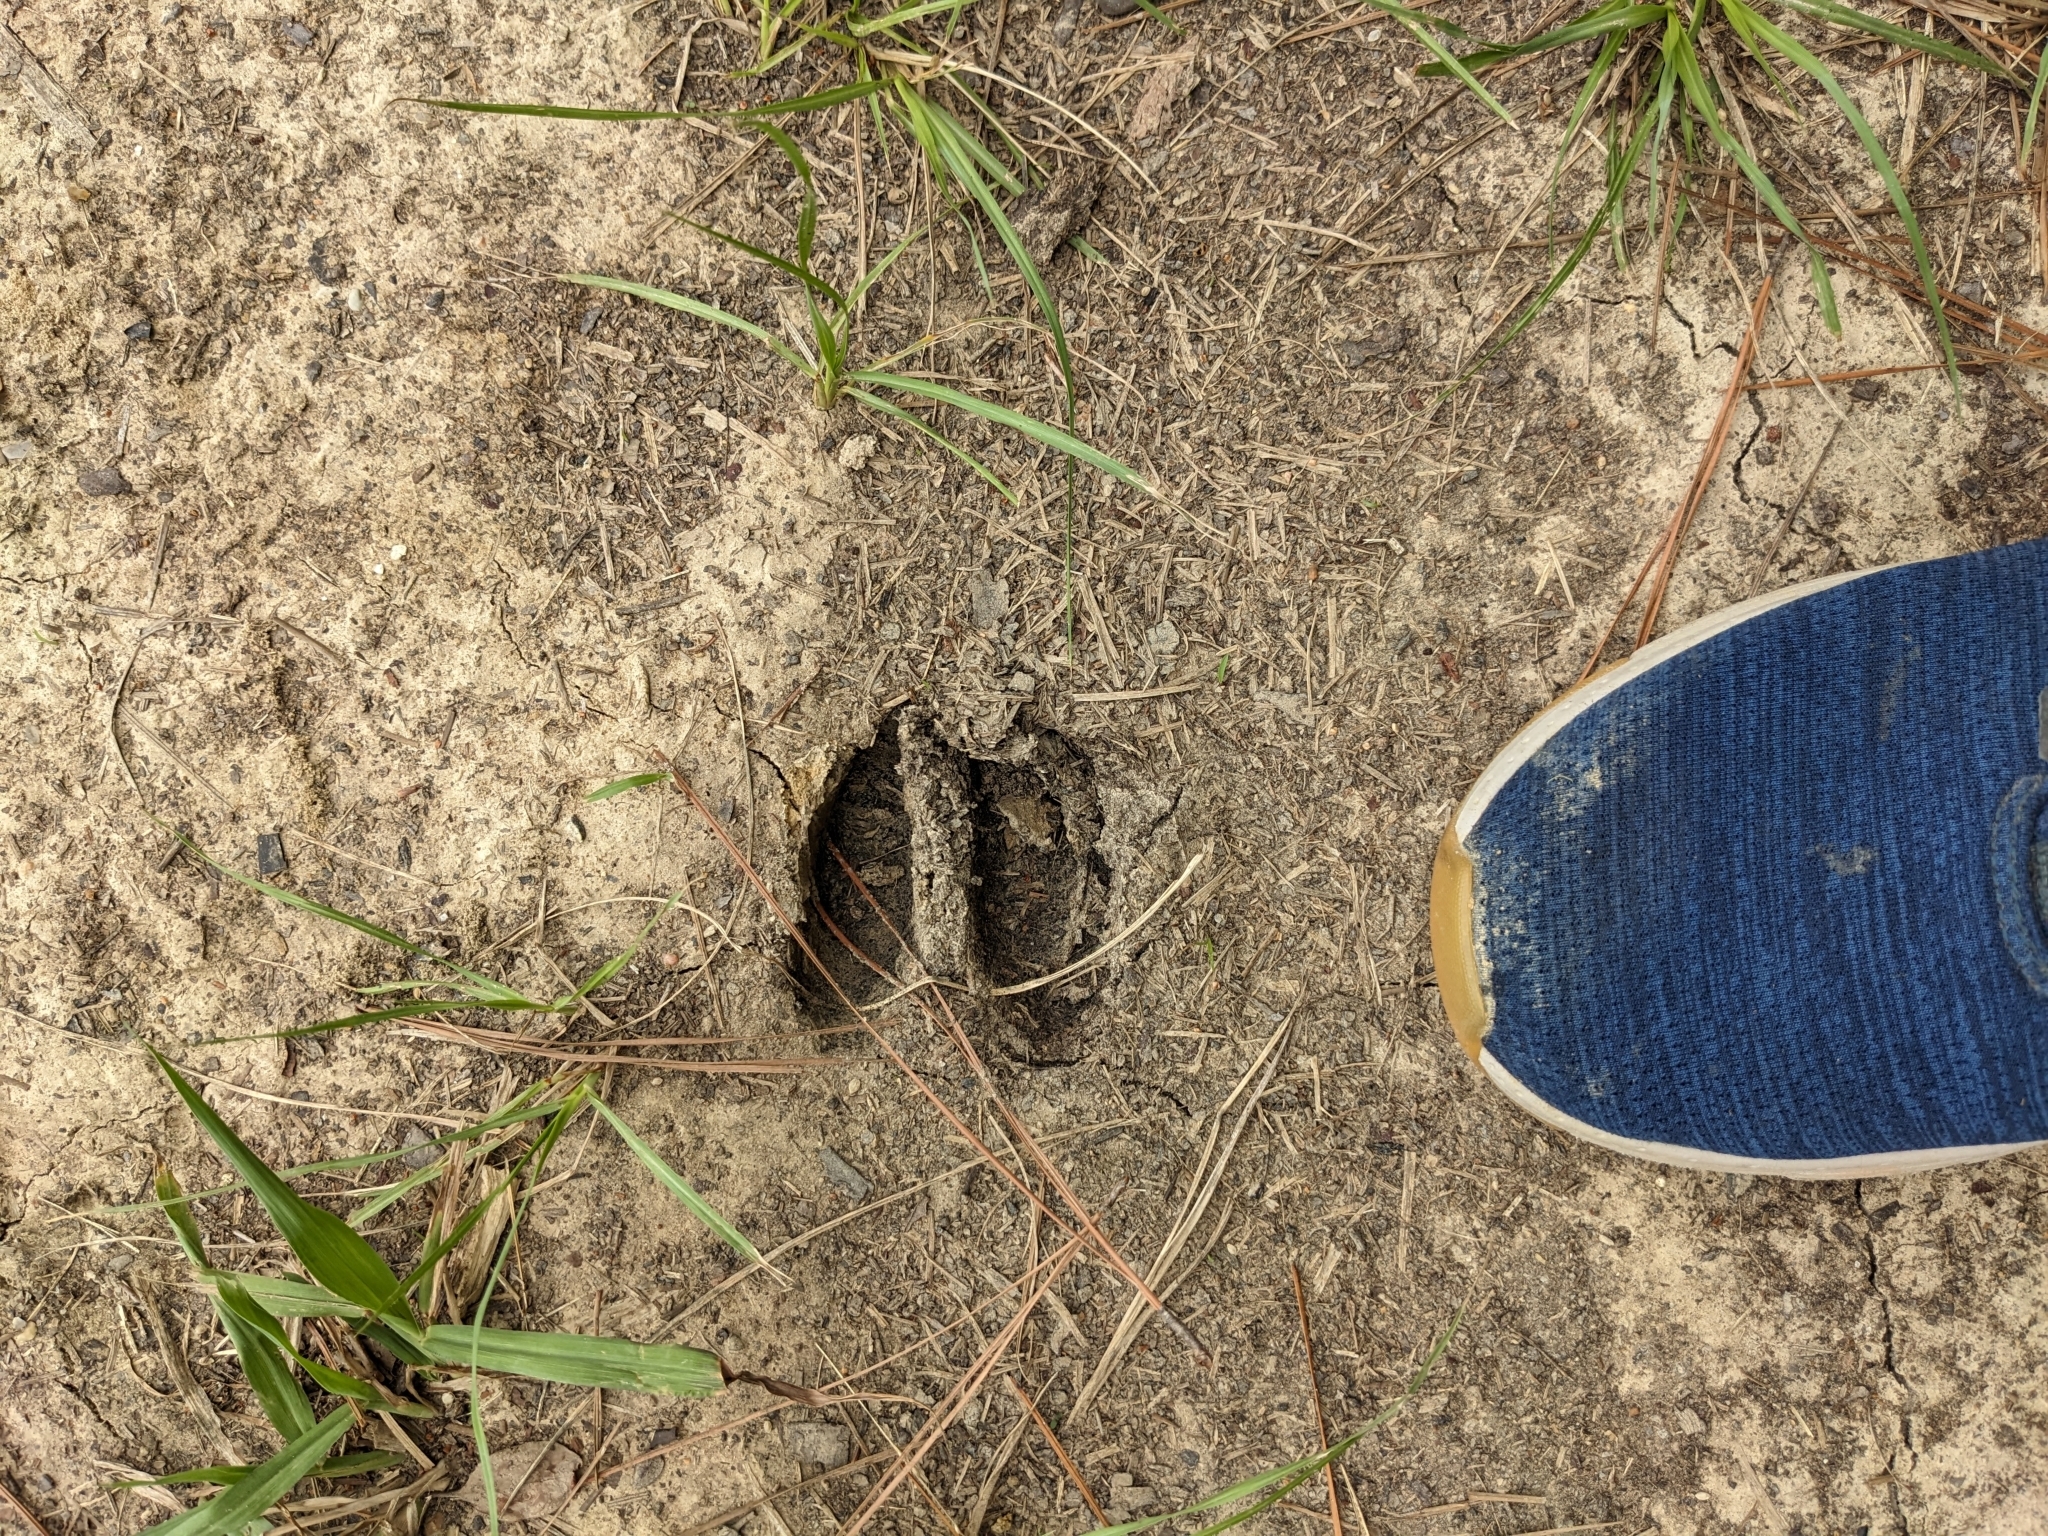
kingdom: Animalia
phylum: Chordata
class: Mammalia
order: Artiodactyla
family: Cervidae
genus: Odocoileus
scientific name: Odocoileus virginianus
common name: White-tailed deer
